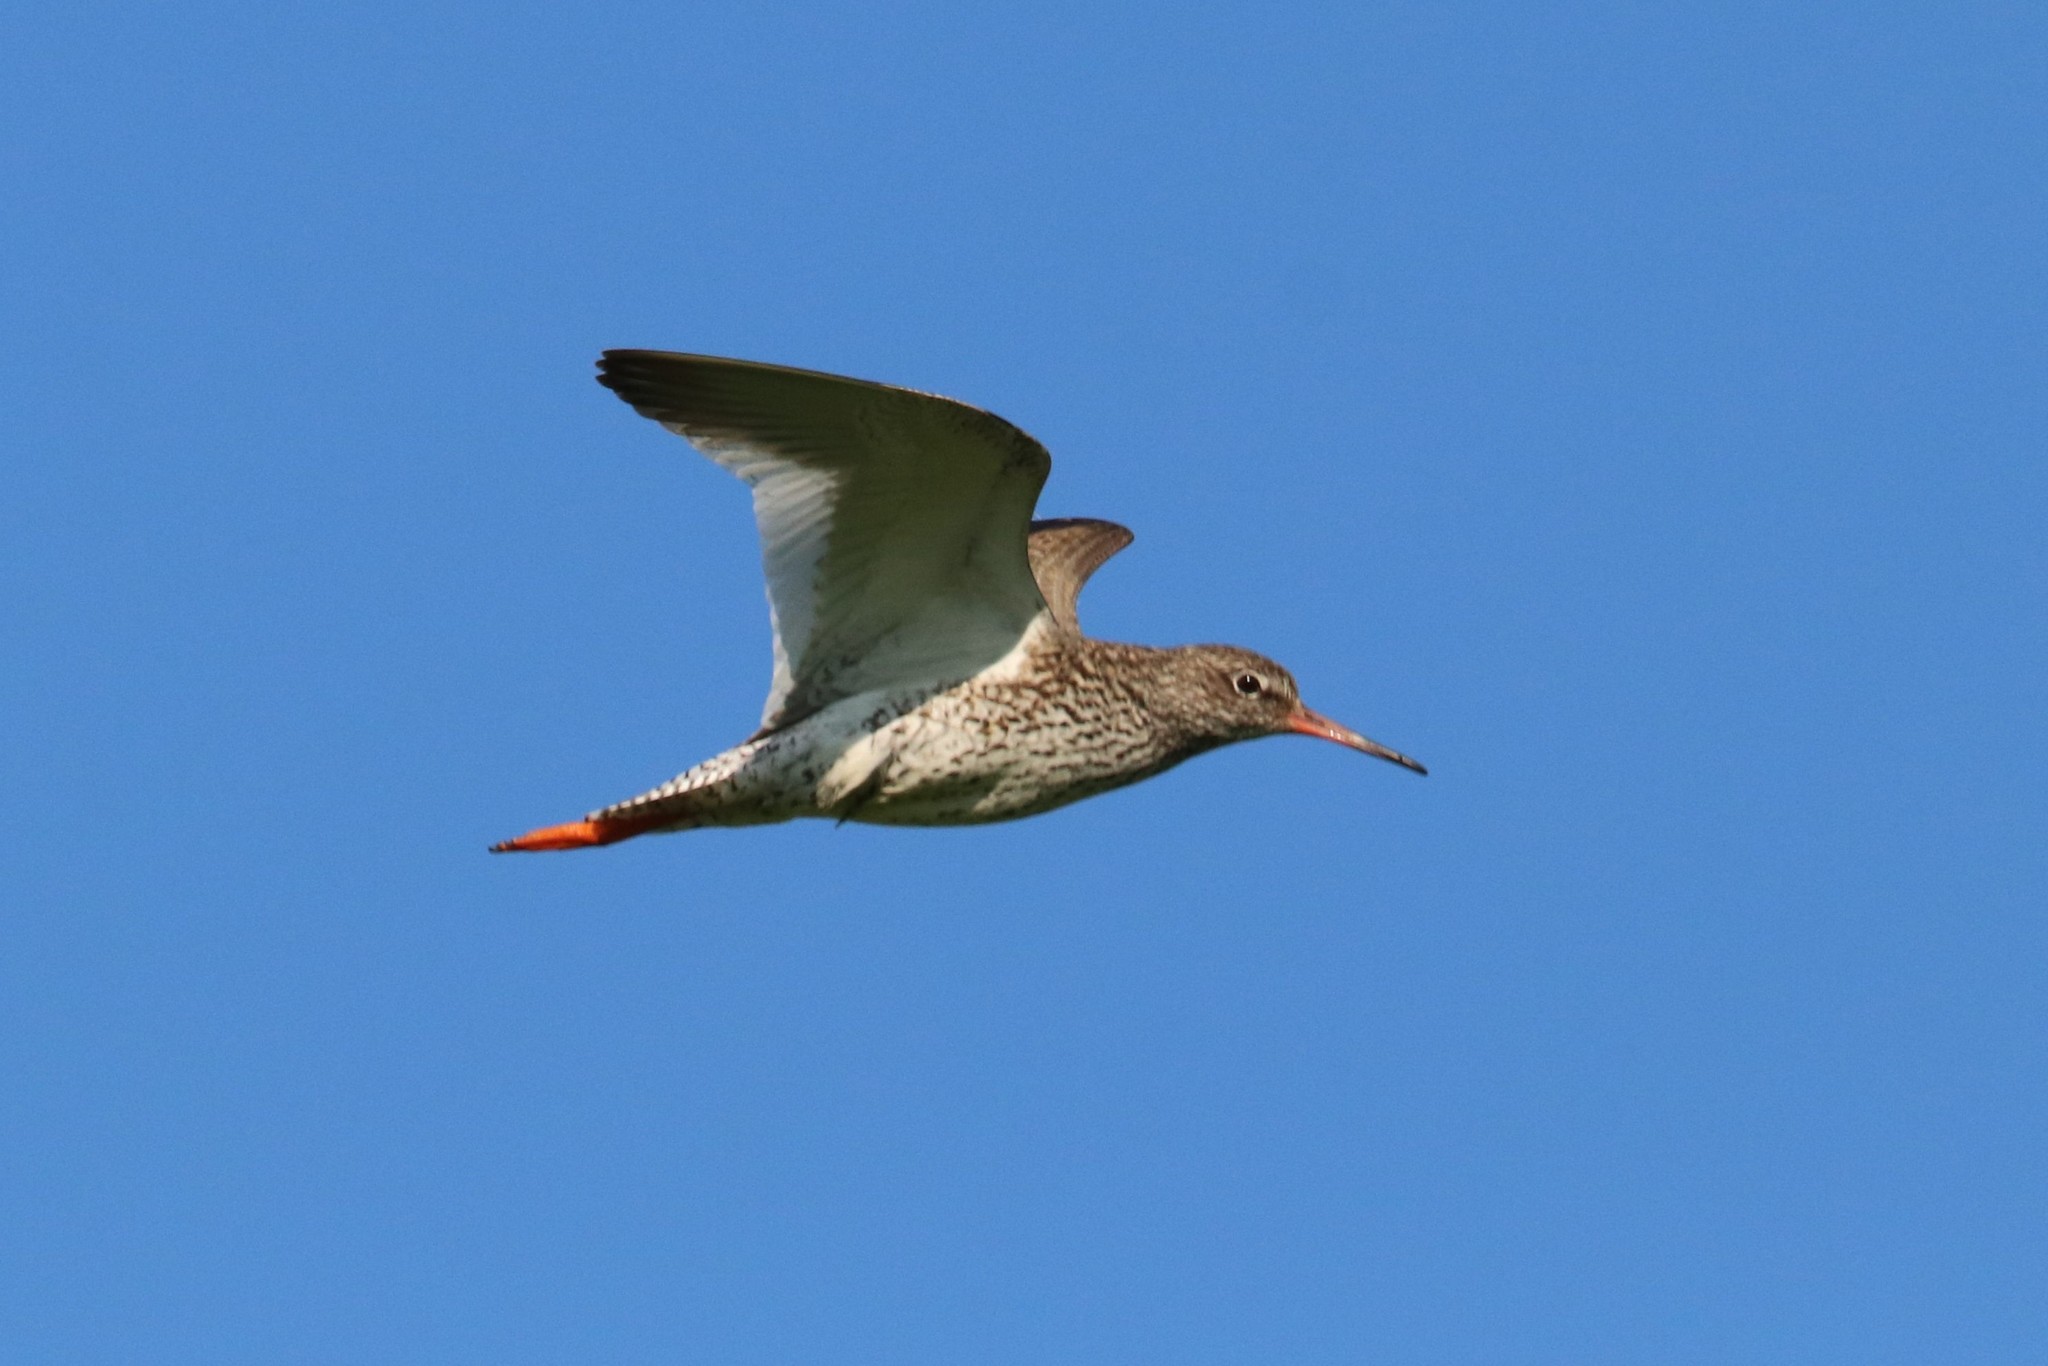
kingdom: Animalia
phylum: Chordata
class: Aves
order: Charadriiformes
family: Scolopacidae
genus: Tringa
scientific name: Tringa totanus
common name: Common redshank
